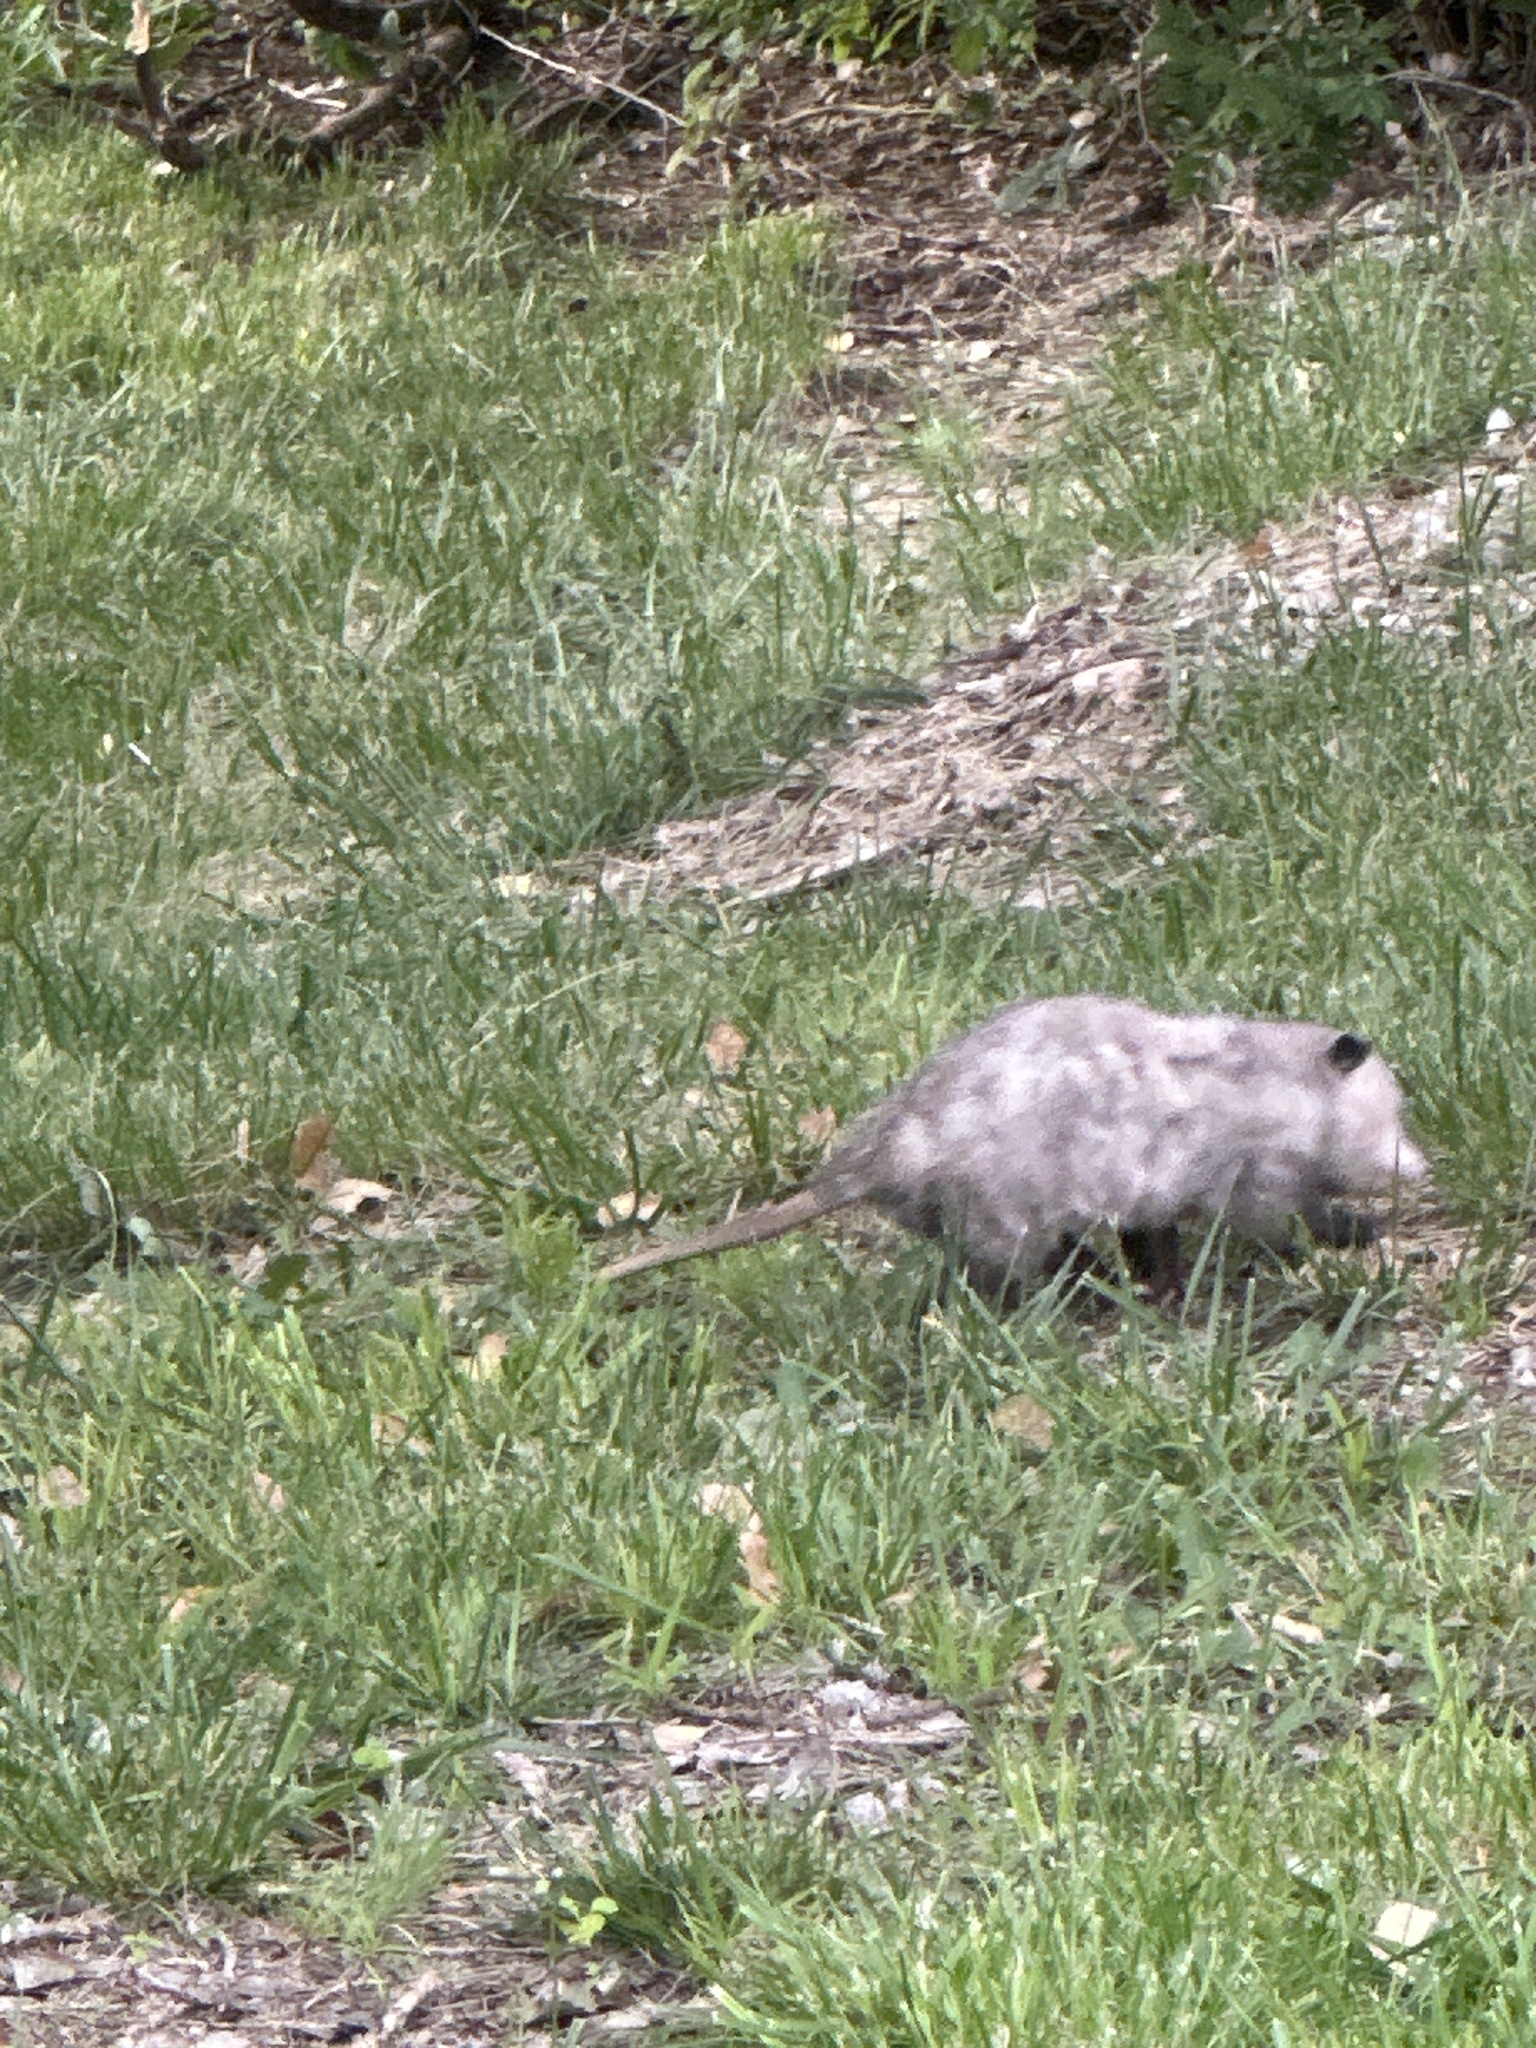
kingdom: Animalia
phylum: Chordata
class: Mammalia
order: Didelphimorphia
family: Didelphidae
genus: Didelphis
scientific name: Didelphis virginiana
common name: Virginia opossum
